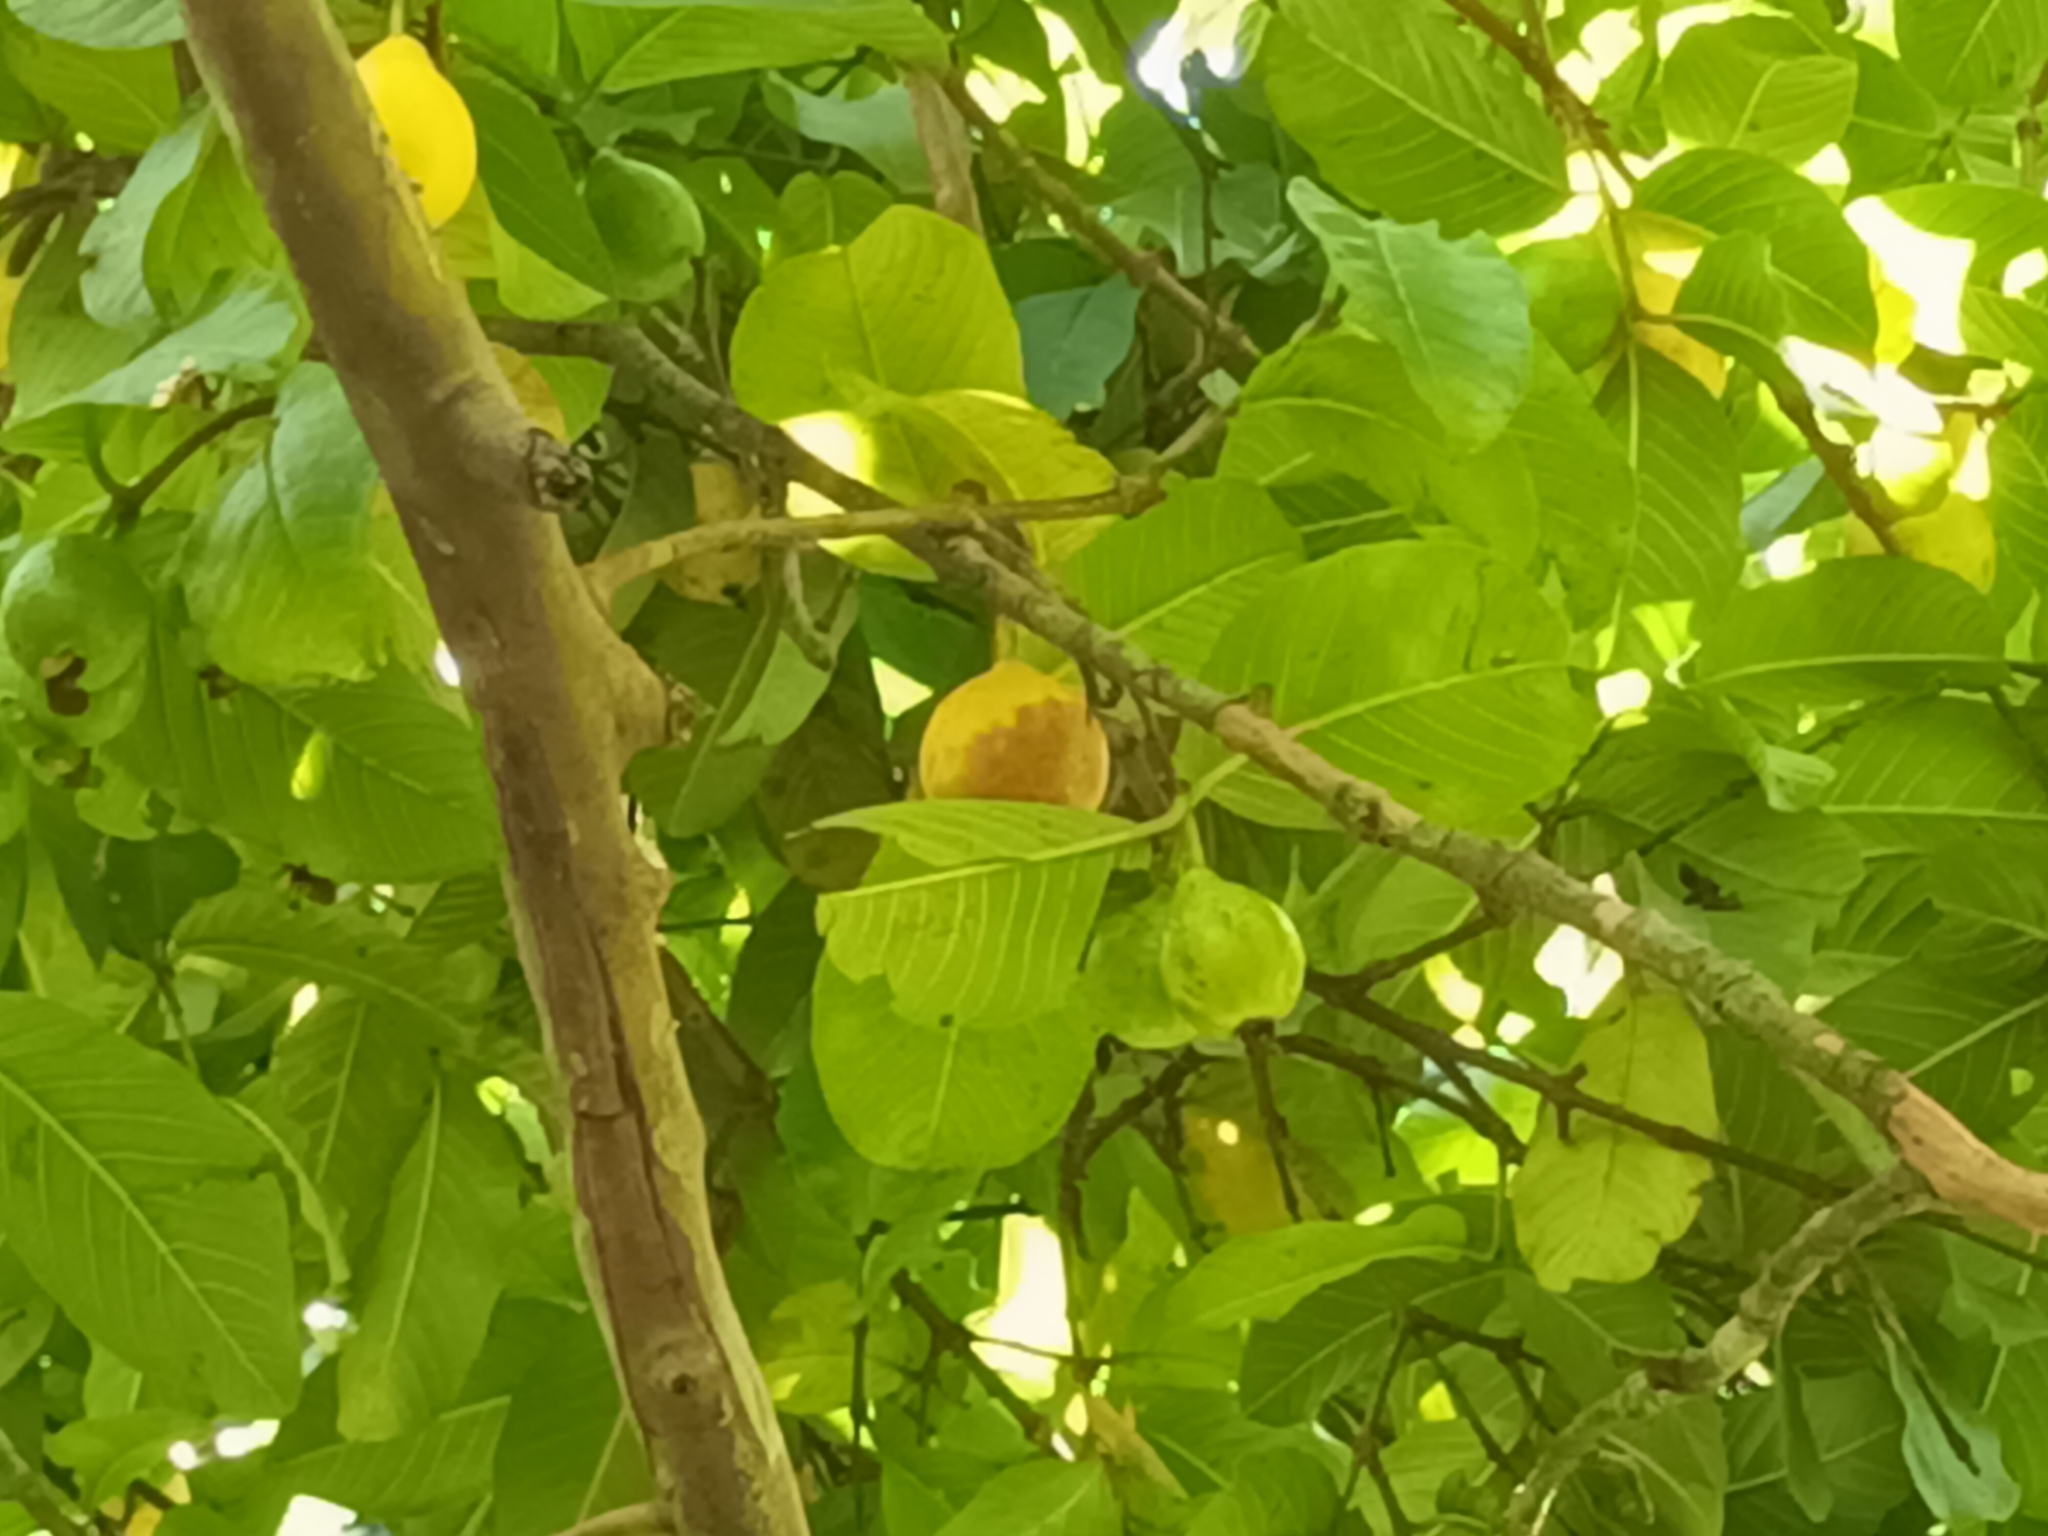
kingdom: Plantae
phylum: Tracheophyta
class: Magnoliopsida
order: Myrtales
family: Myrtaceae
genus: Psidium
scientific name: Psidium guajava
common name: Guava
